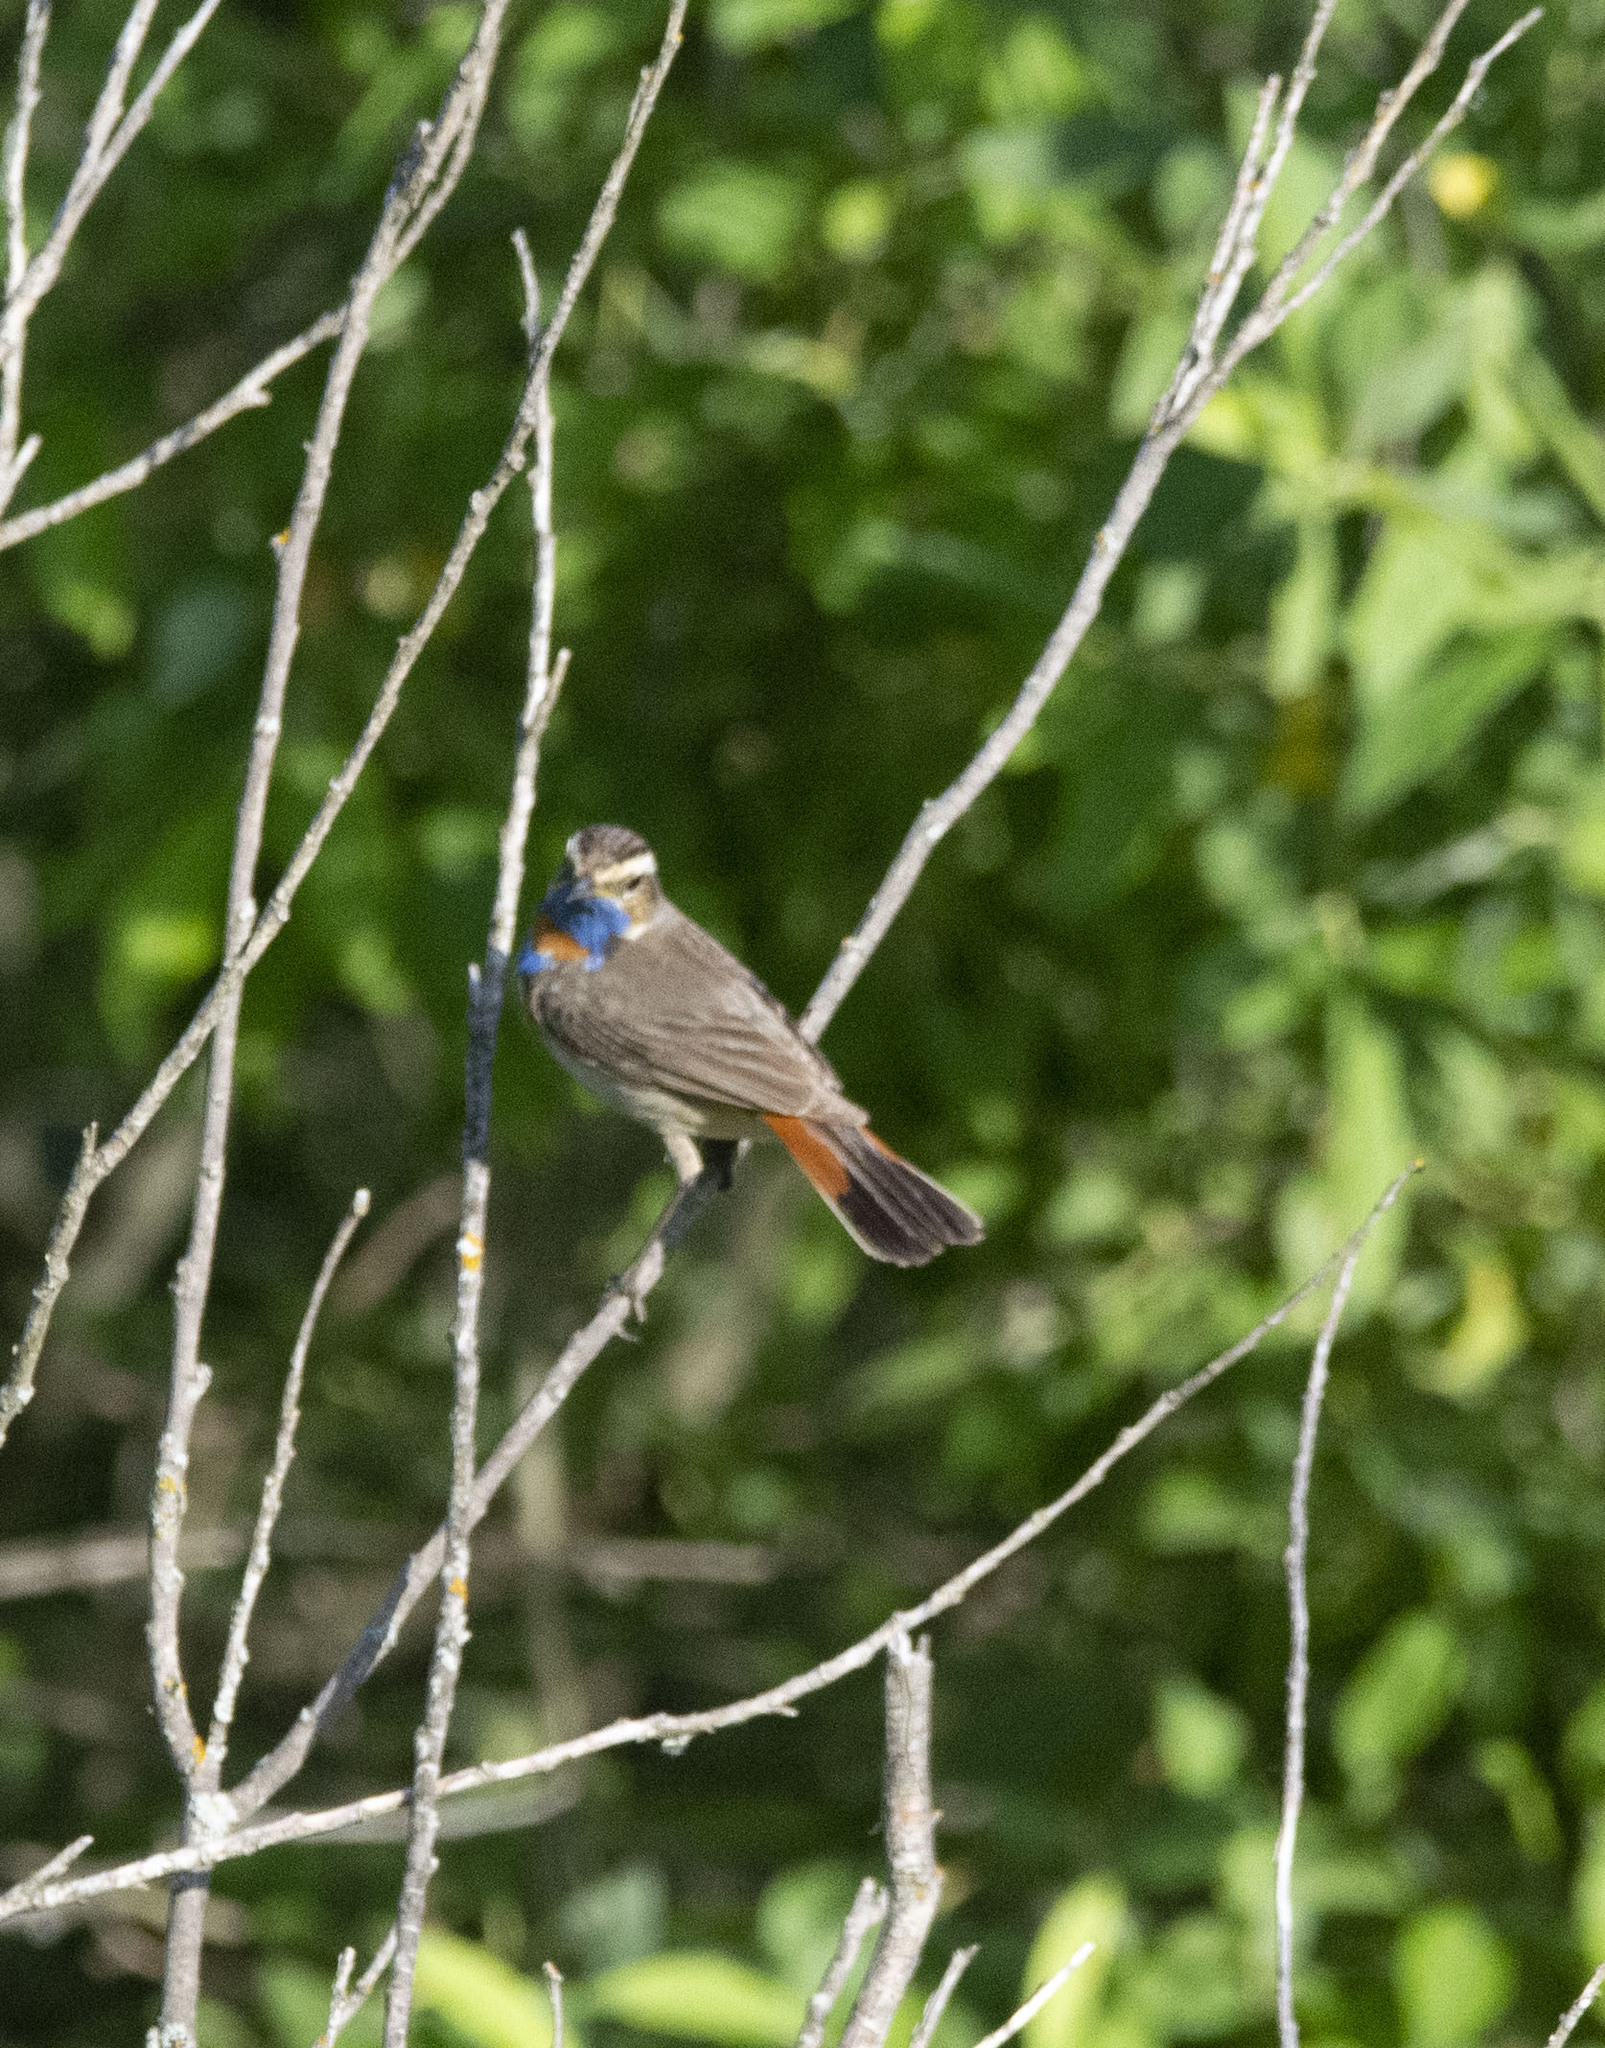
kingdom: Animalia
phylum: Chordata
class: Aves
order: Passeriformes
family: Muscicapidae
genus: Luscinia
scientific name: Luscinia svecica
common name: Bluethroat
